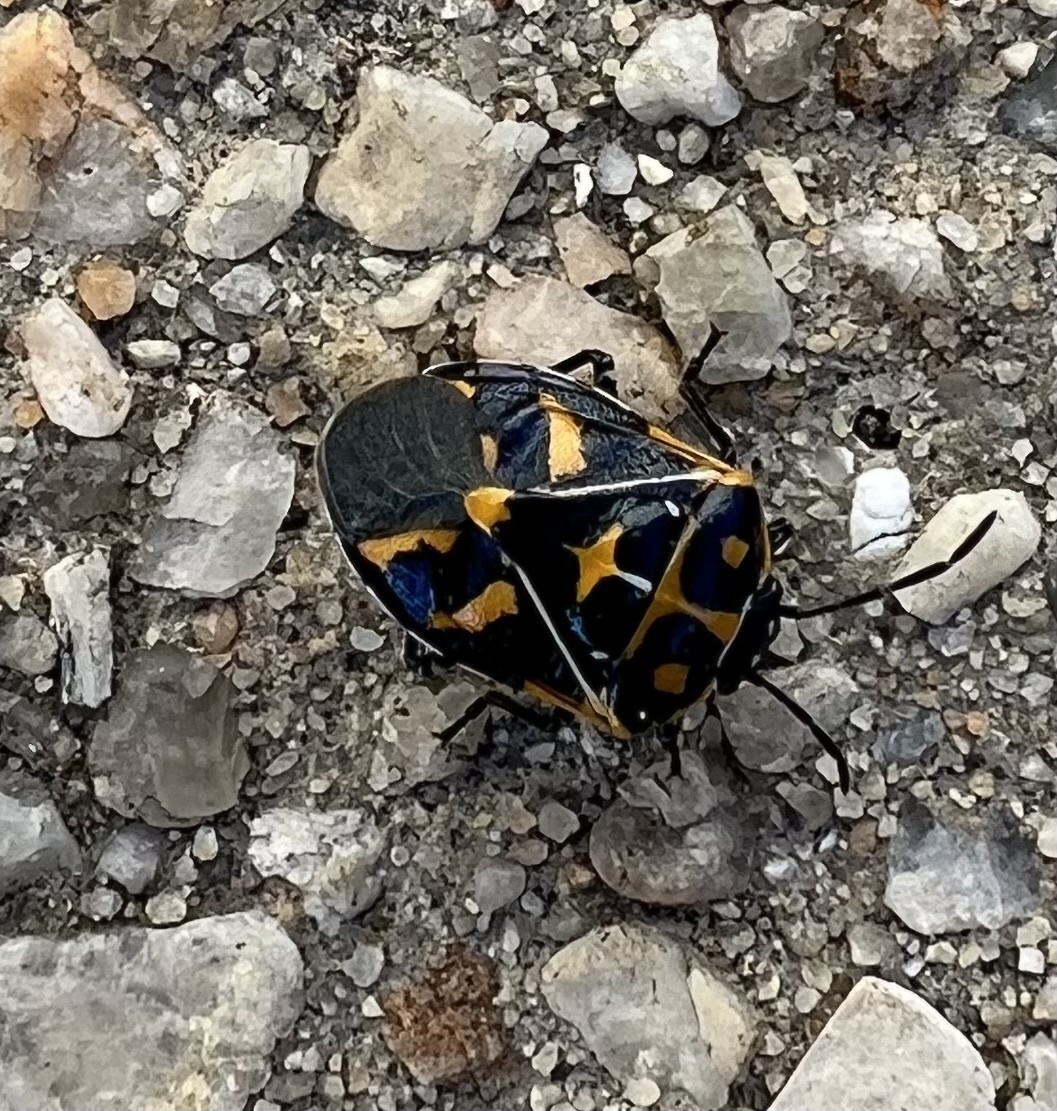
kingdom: Animalia
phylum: Arthropoda
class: Insecta
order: Hemiptera
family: Pentatomidae
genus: Murgantia
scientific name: Murgantia histrionica
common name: Harlequin bug
